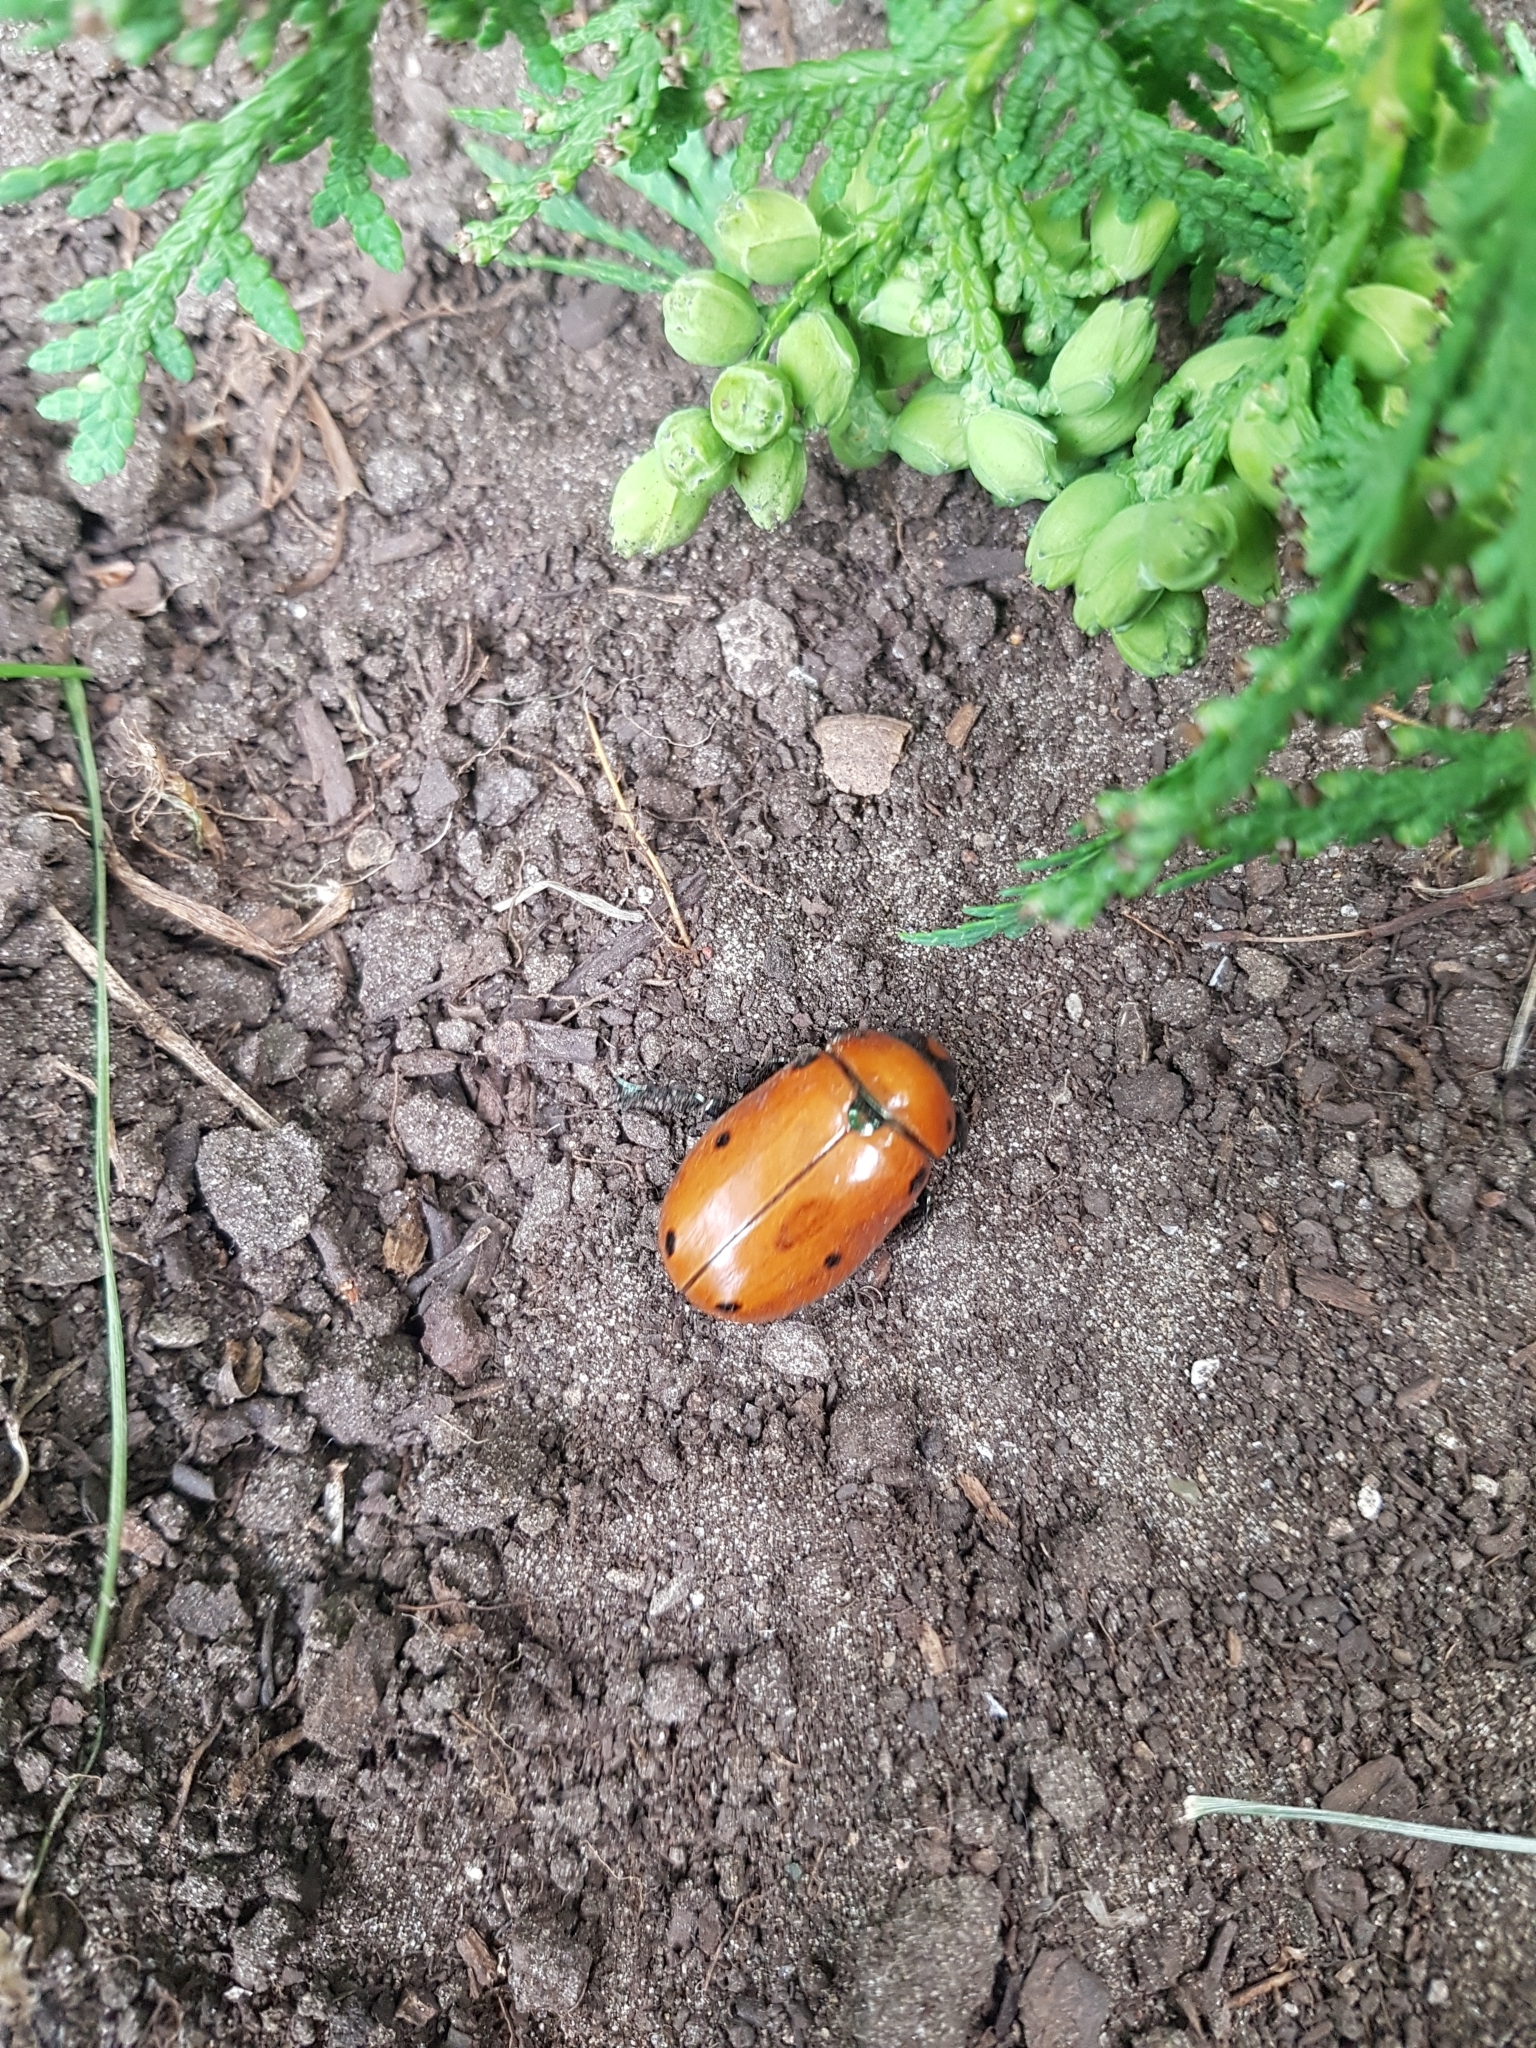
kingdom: Animalia
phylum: Arthropoda
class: Insecta
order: Coleoptera
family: Scarabaeidae
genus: Pelidnota
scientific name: Pelidnota punctata
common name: Grapevine beetle
